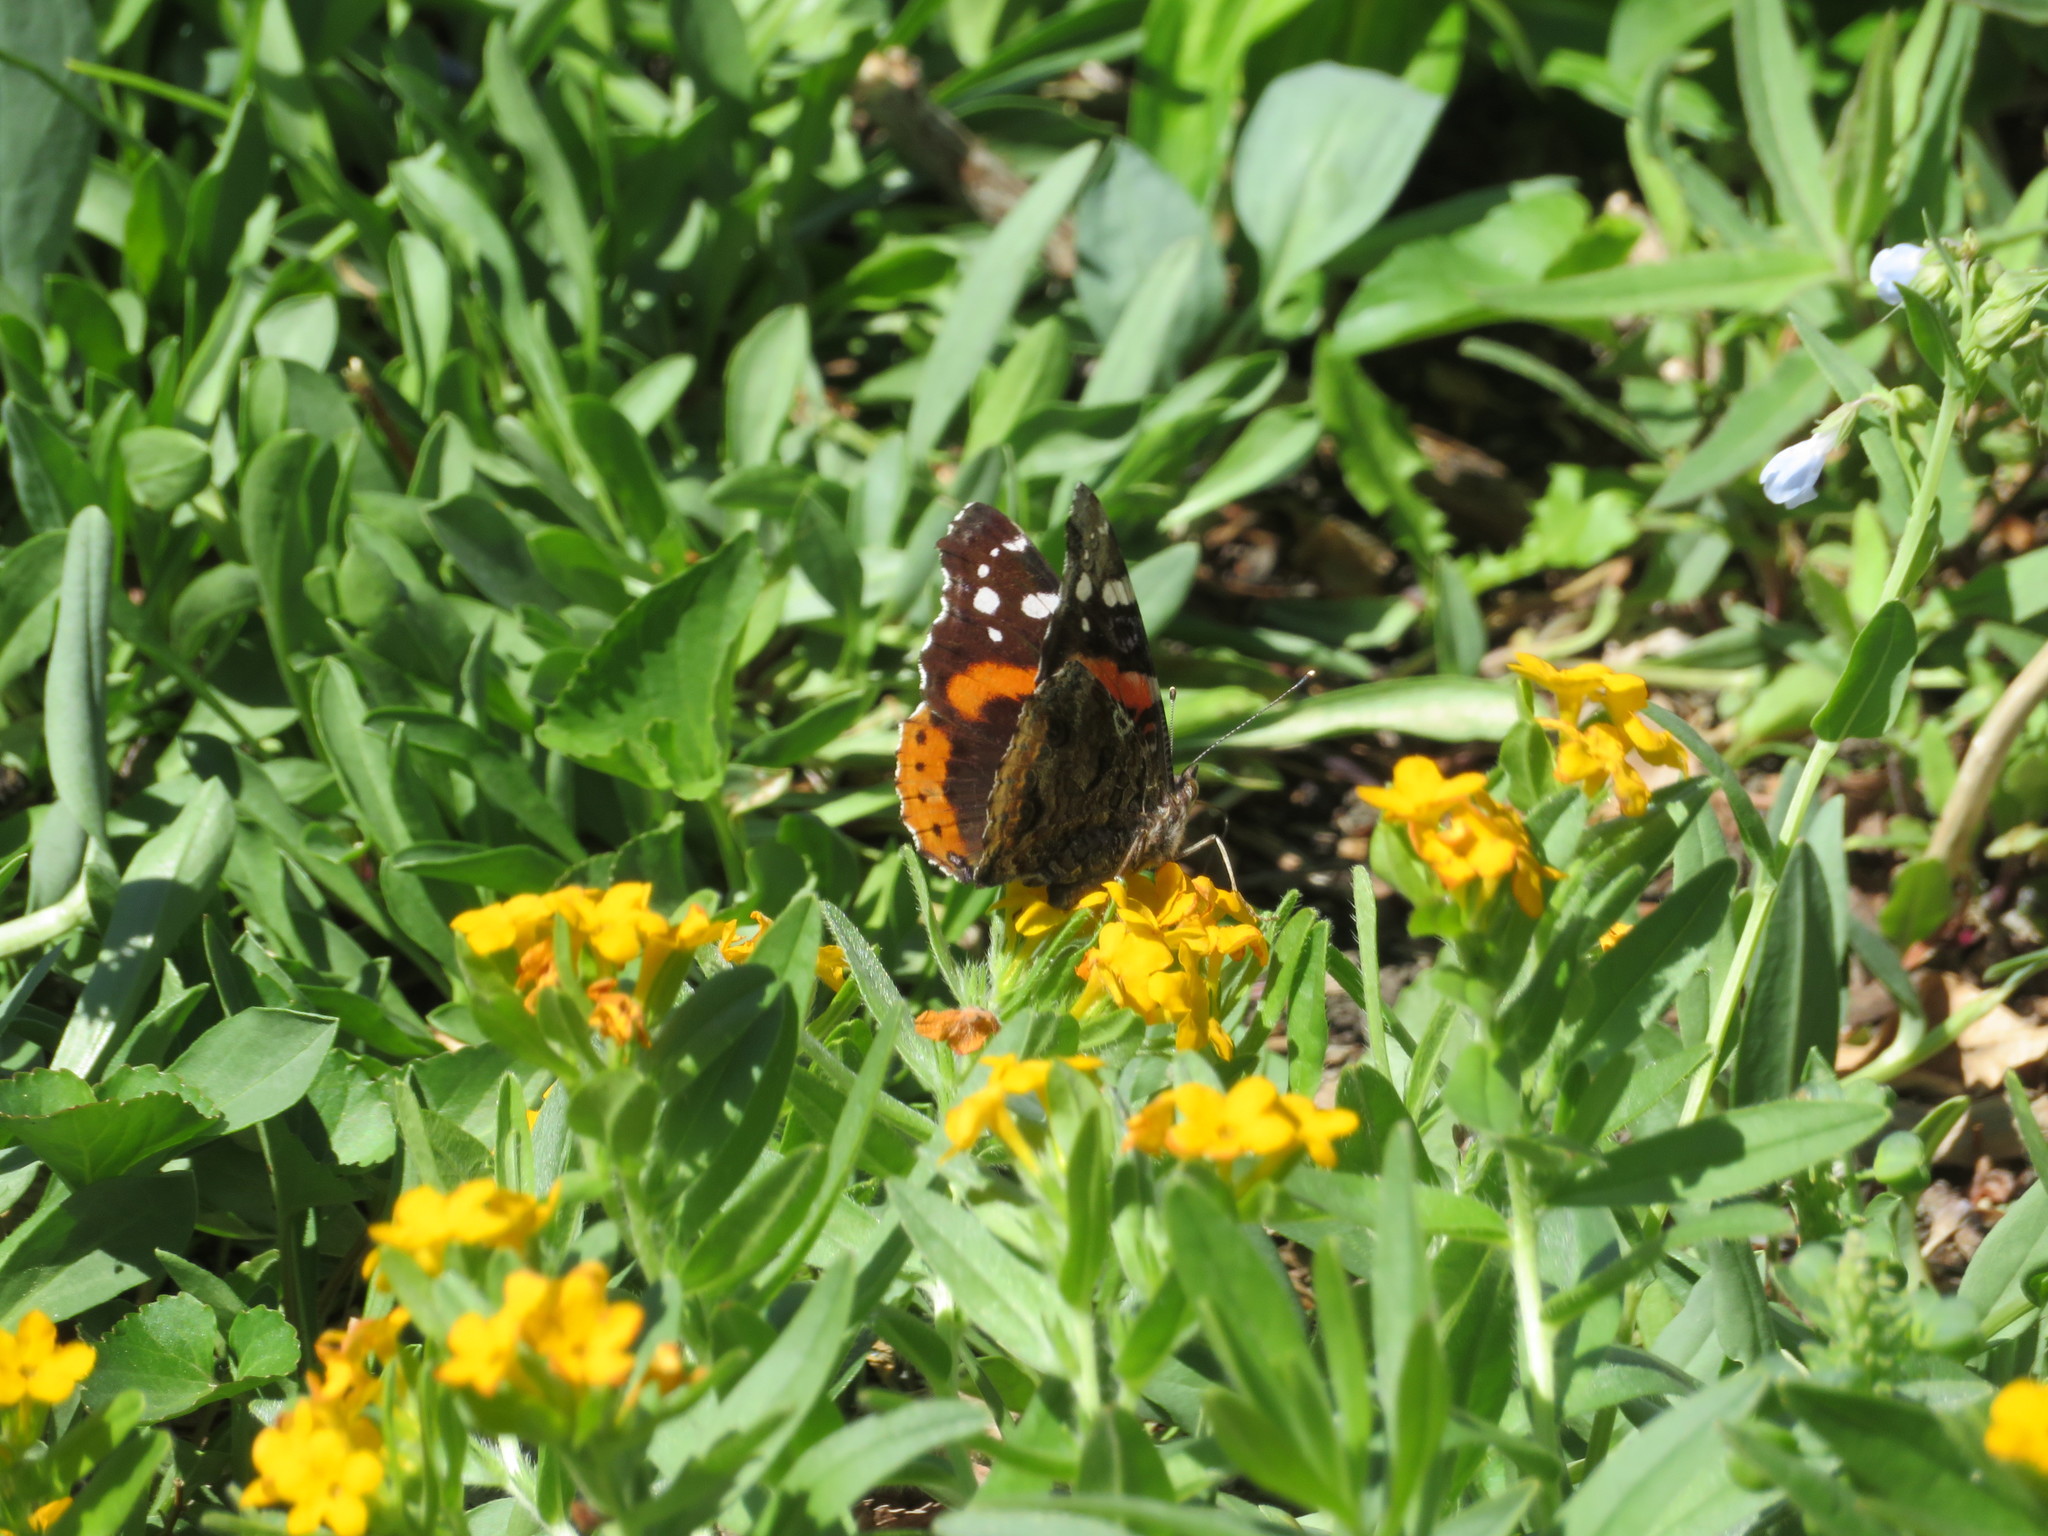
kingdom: Animalia
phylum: Arthropoda
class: Insecta
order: Lepidoptera
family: Nymphalidae
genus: Vanessa
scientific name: Vanessa atalanta
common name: Red admiral
